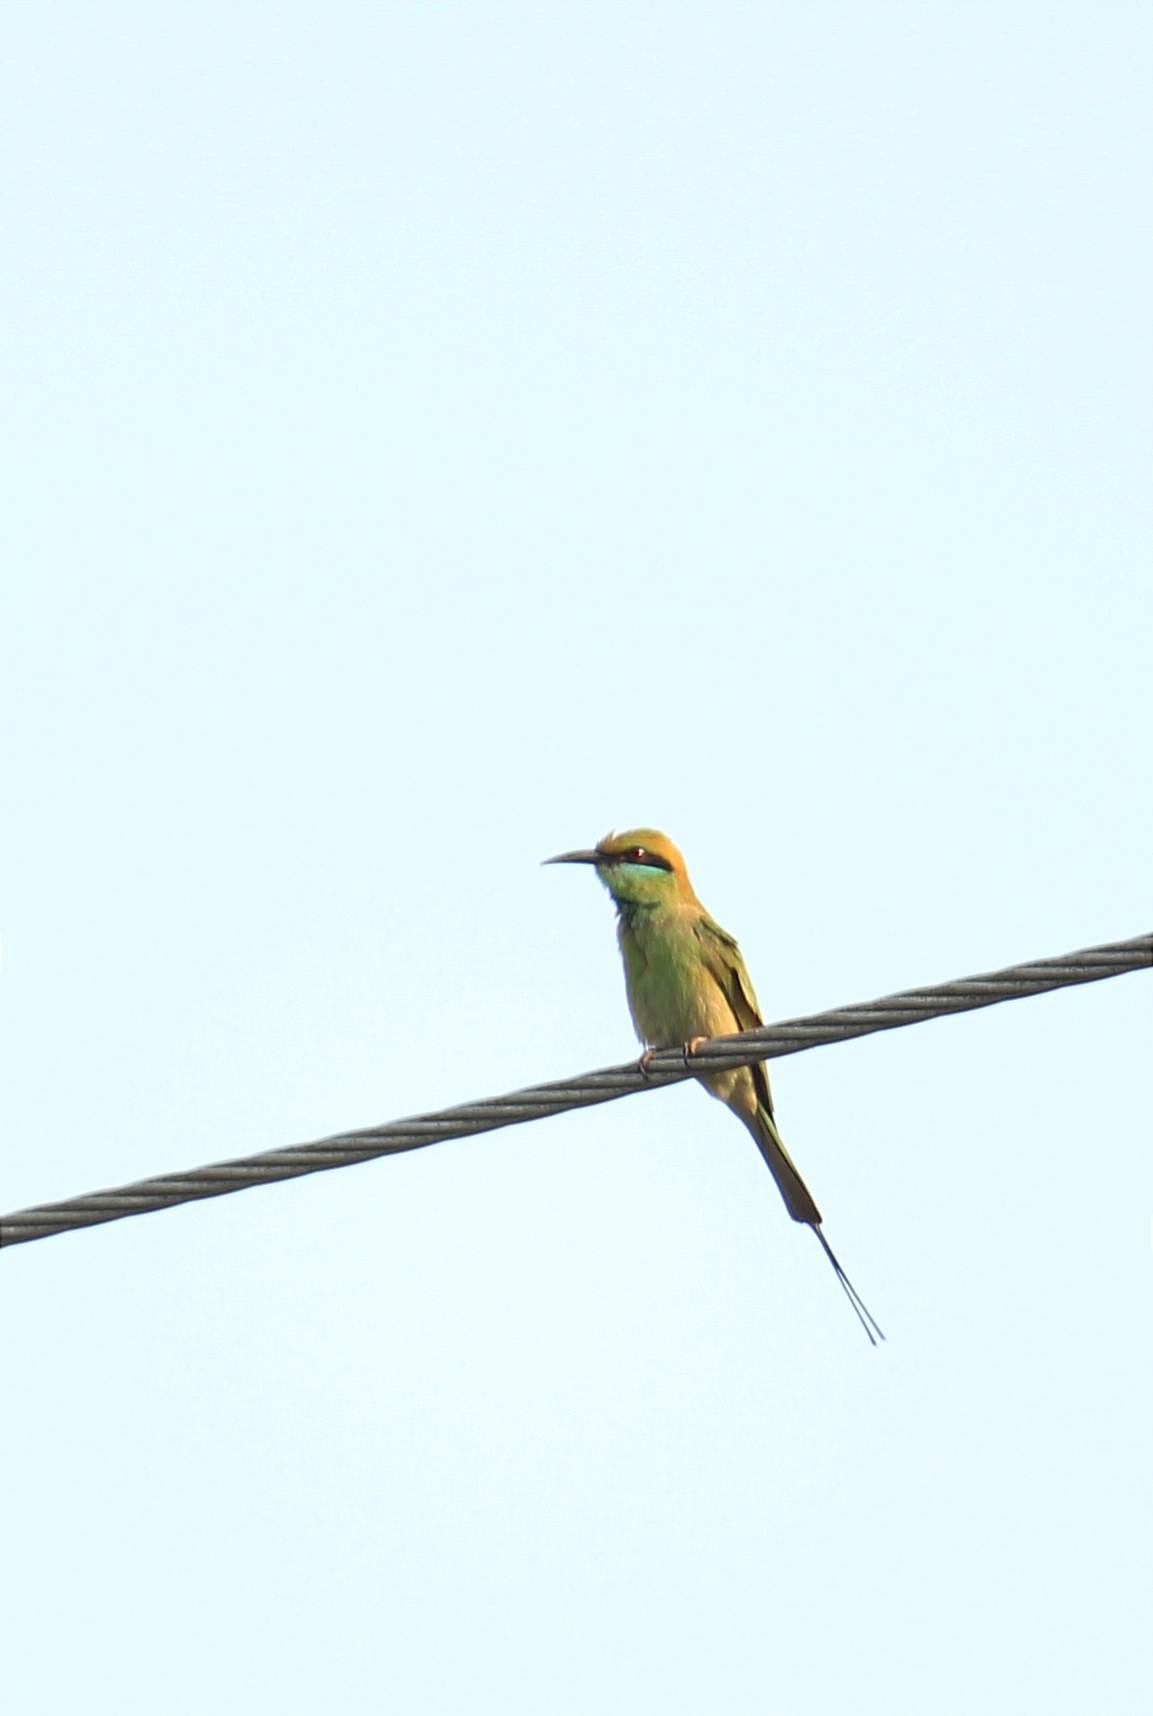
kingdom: Animalia
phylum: Chordata
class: Aves
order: Coraciiformes
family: Meropidae
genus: Merops
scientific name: Merops orientalis
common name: Green bee-eater
